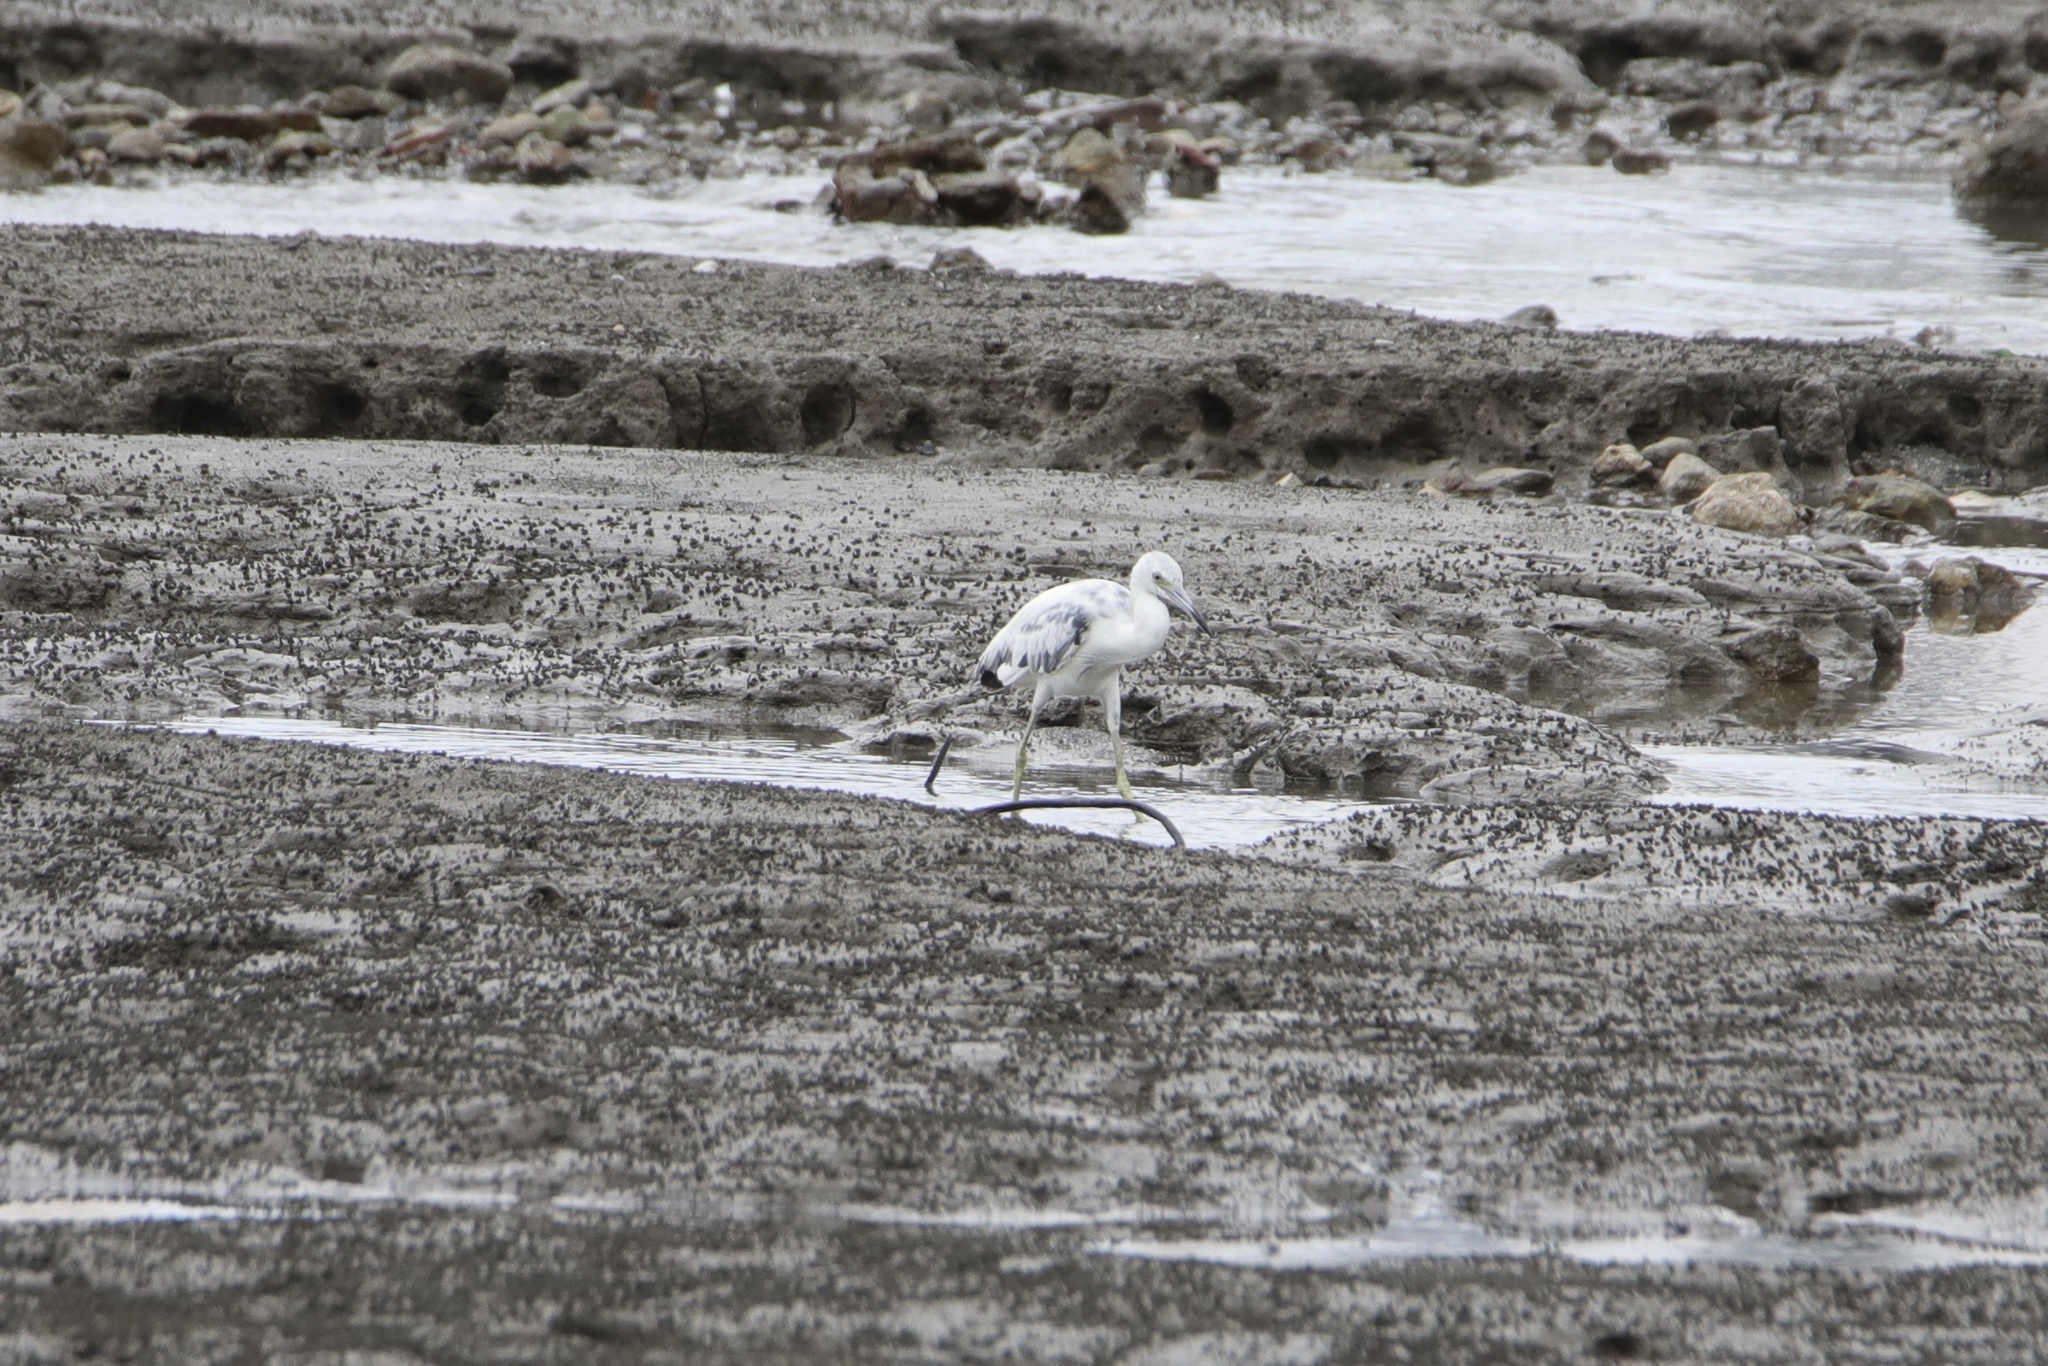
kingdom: Animalia
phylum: Chordata
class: Aves
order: Pelecaniformes
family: Ardeidae
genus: Egretta
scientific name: Egretta caerulea
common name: Little blue heron
